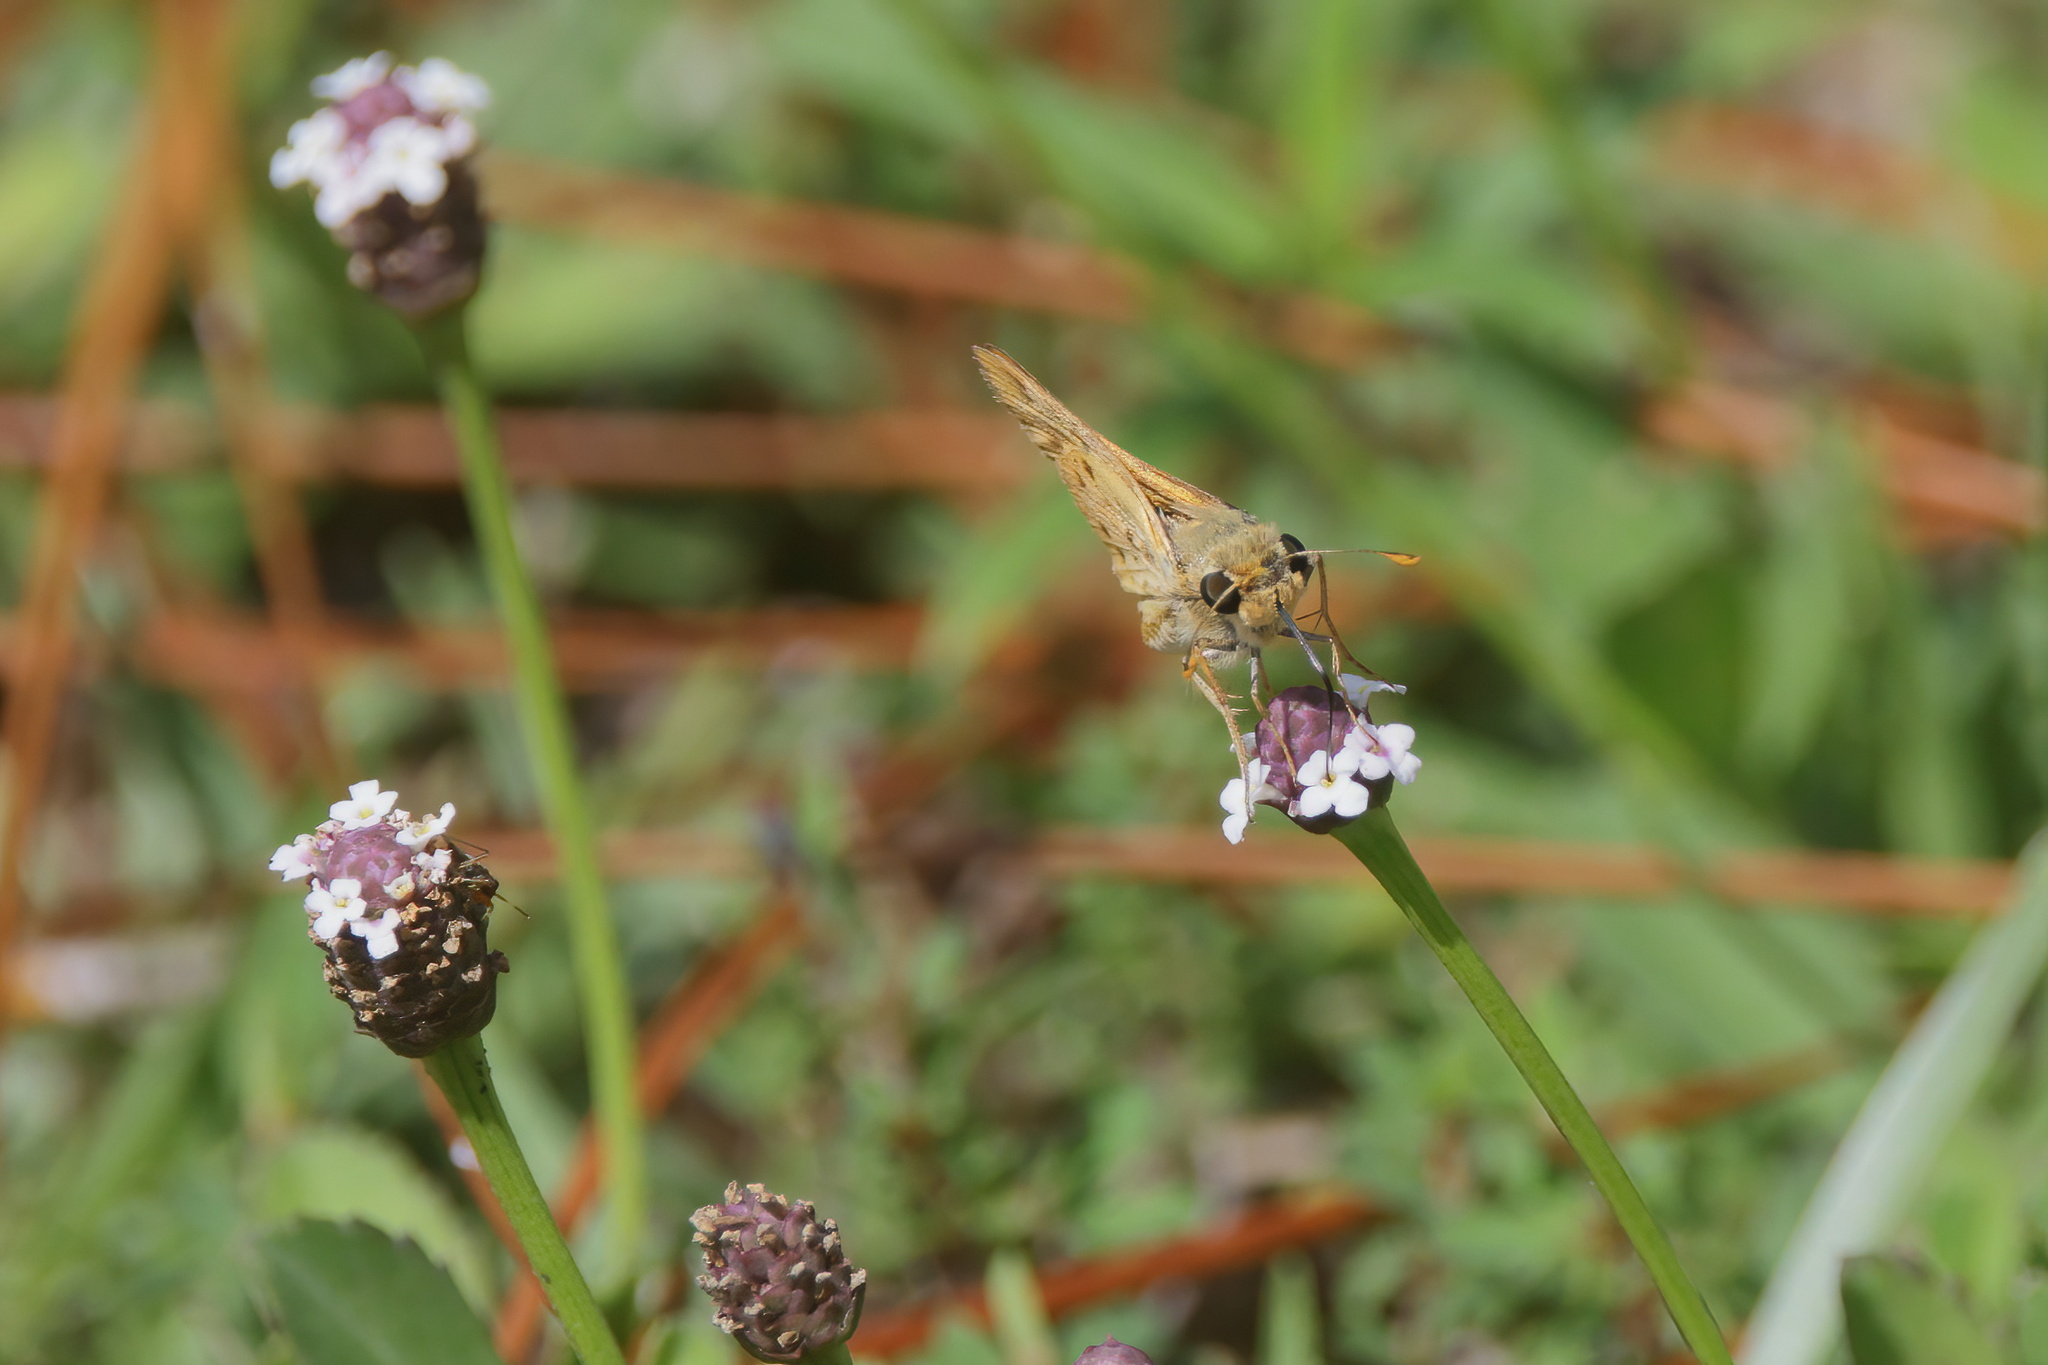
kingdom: Animalia
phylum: Arthropoda
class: Insecta
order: Lepidoptera
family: Hesperiidae
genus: Hylephila
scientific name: Hylephila phyleus
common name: Fiery skipper
